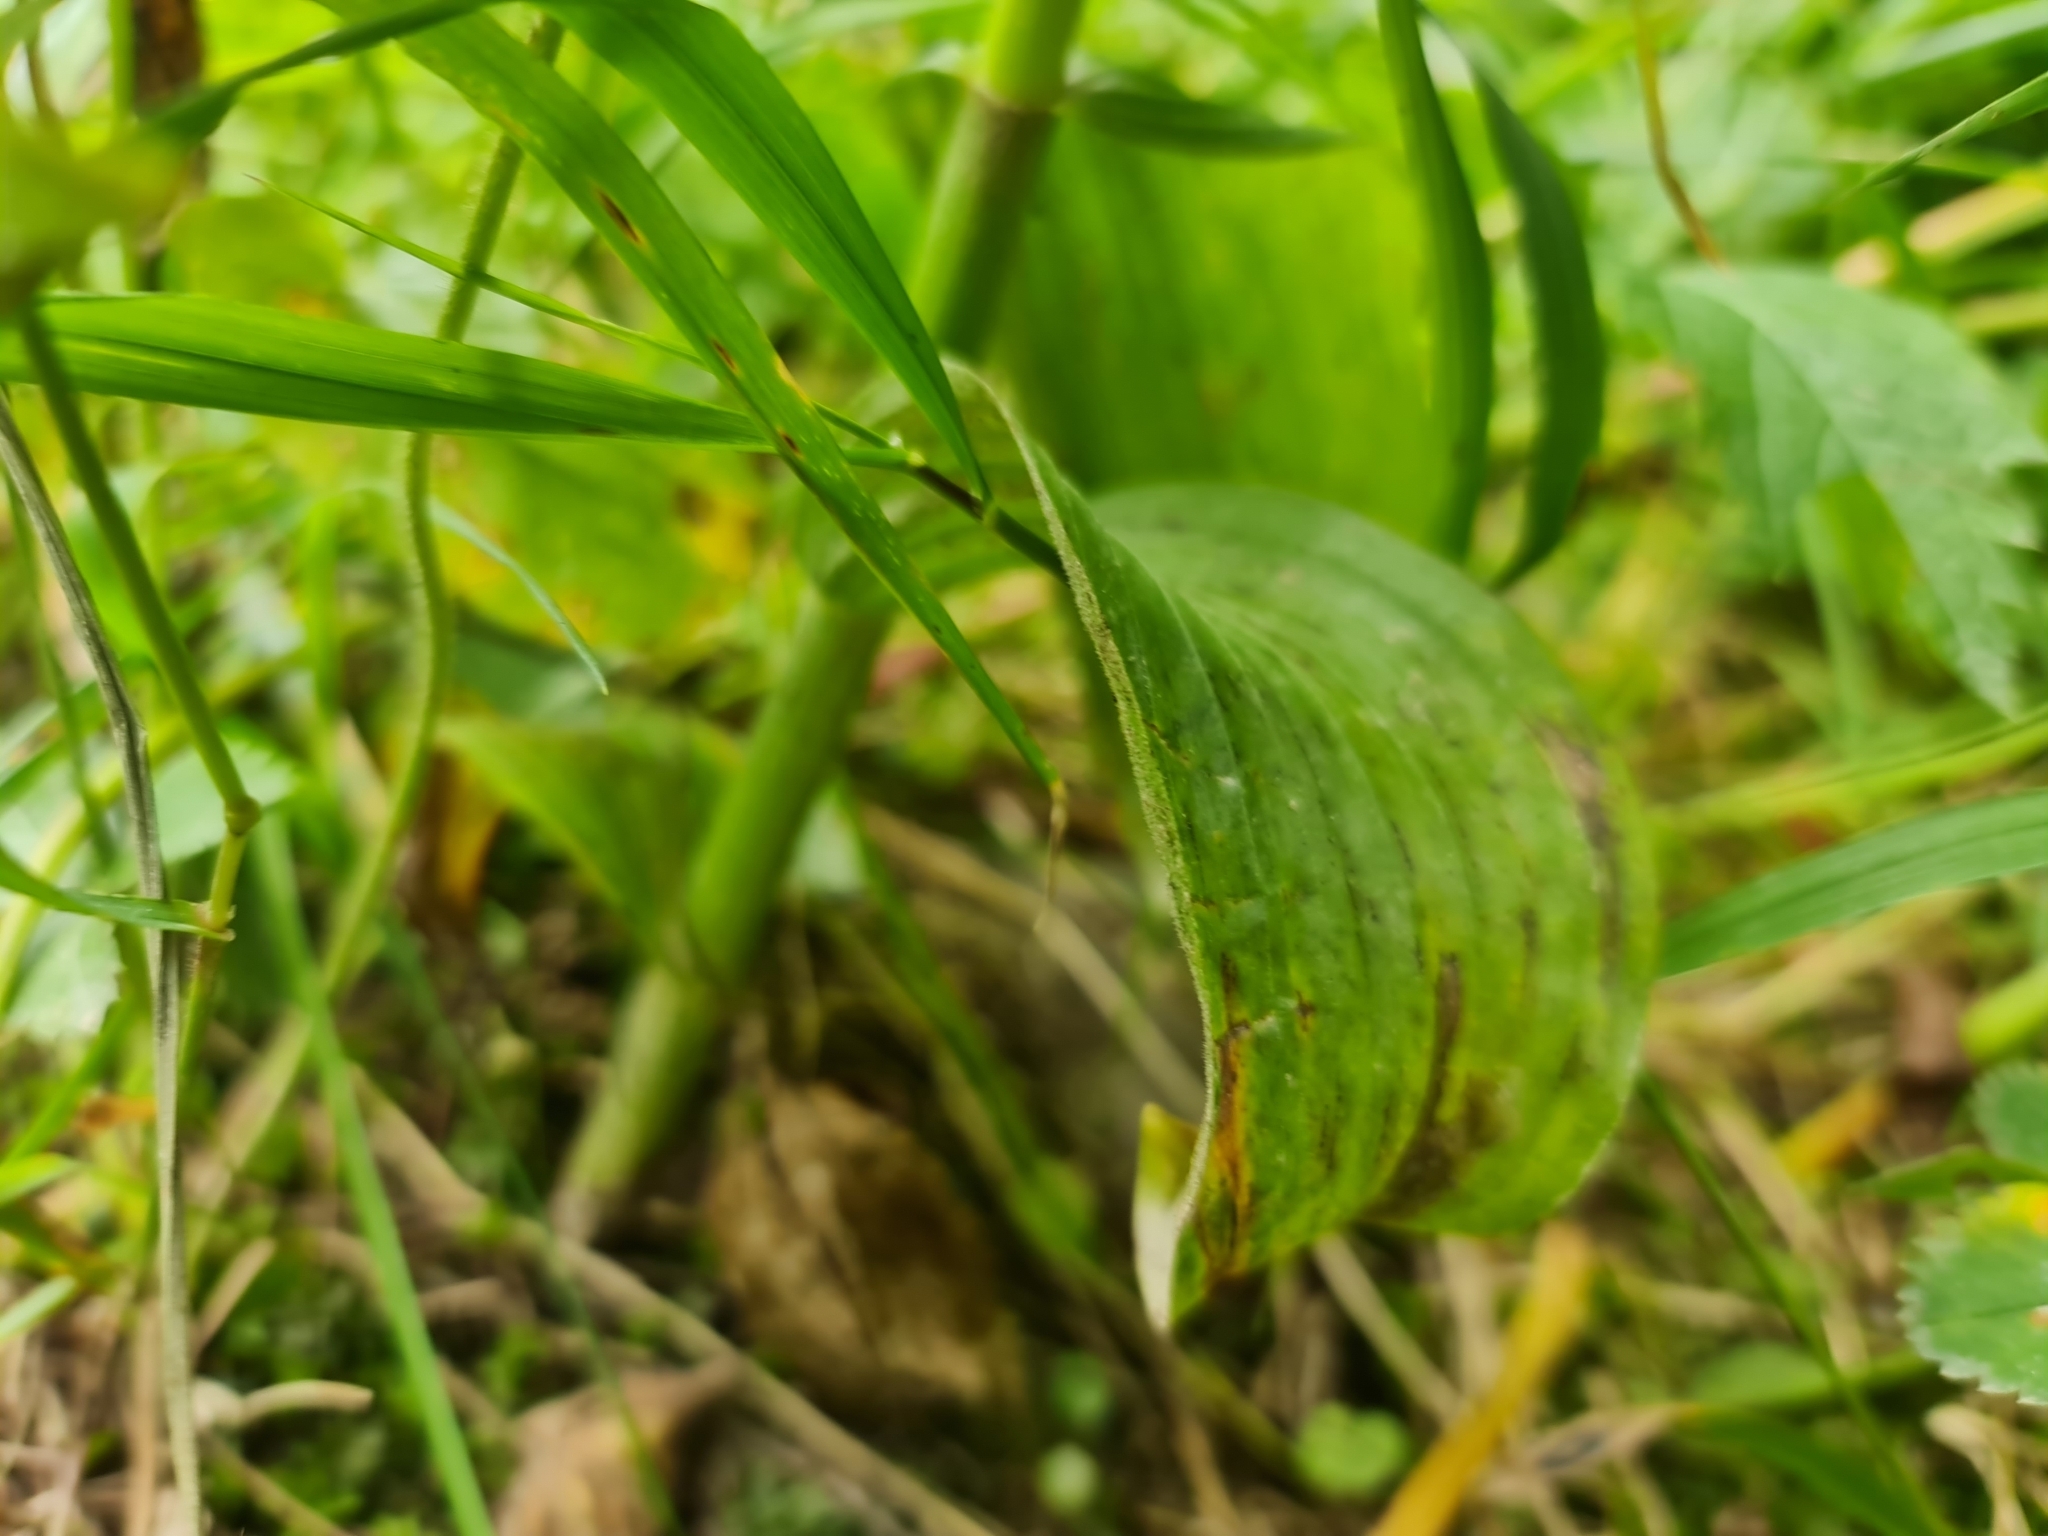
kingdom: Plantae
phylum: Tracheophyta
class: Liliopsida
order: Liliales
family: Melanthiaceae
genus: Veratrum
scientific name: Veratrum lobelianum
